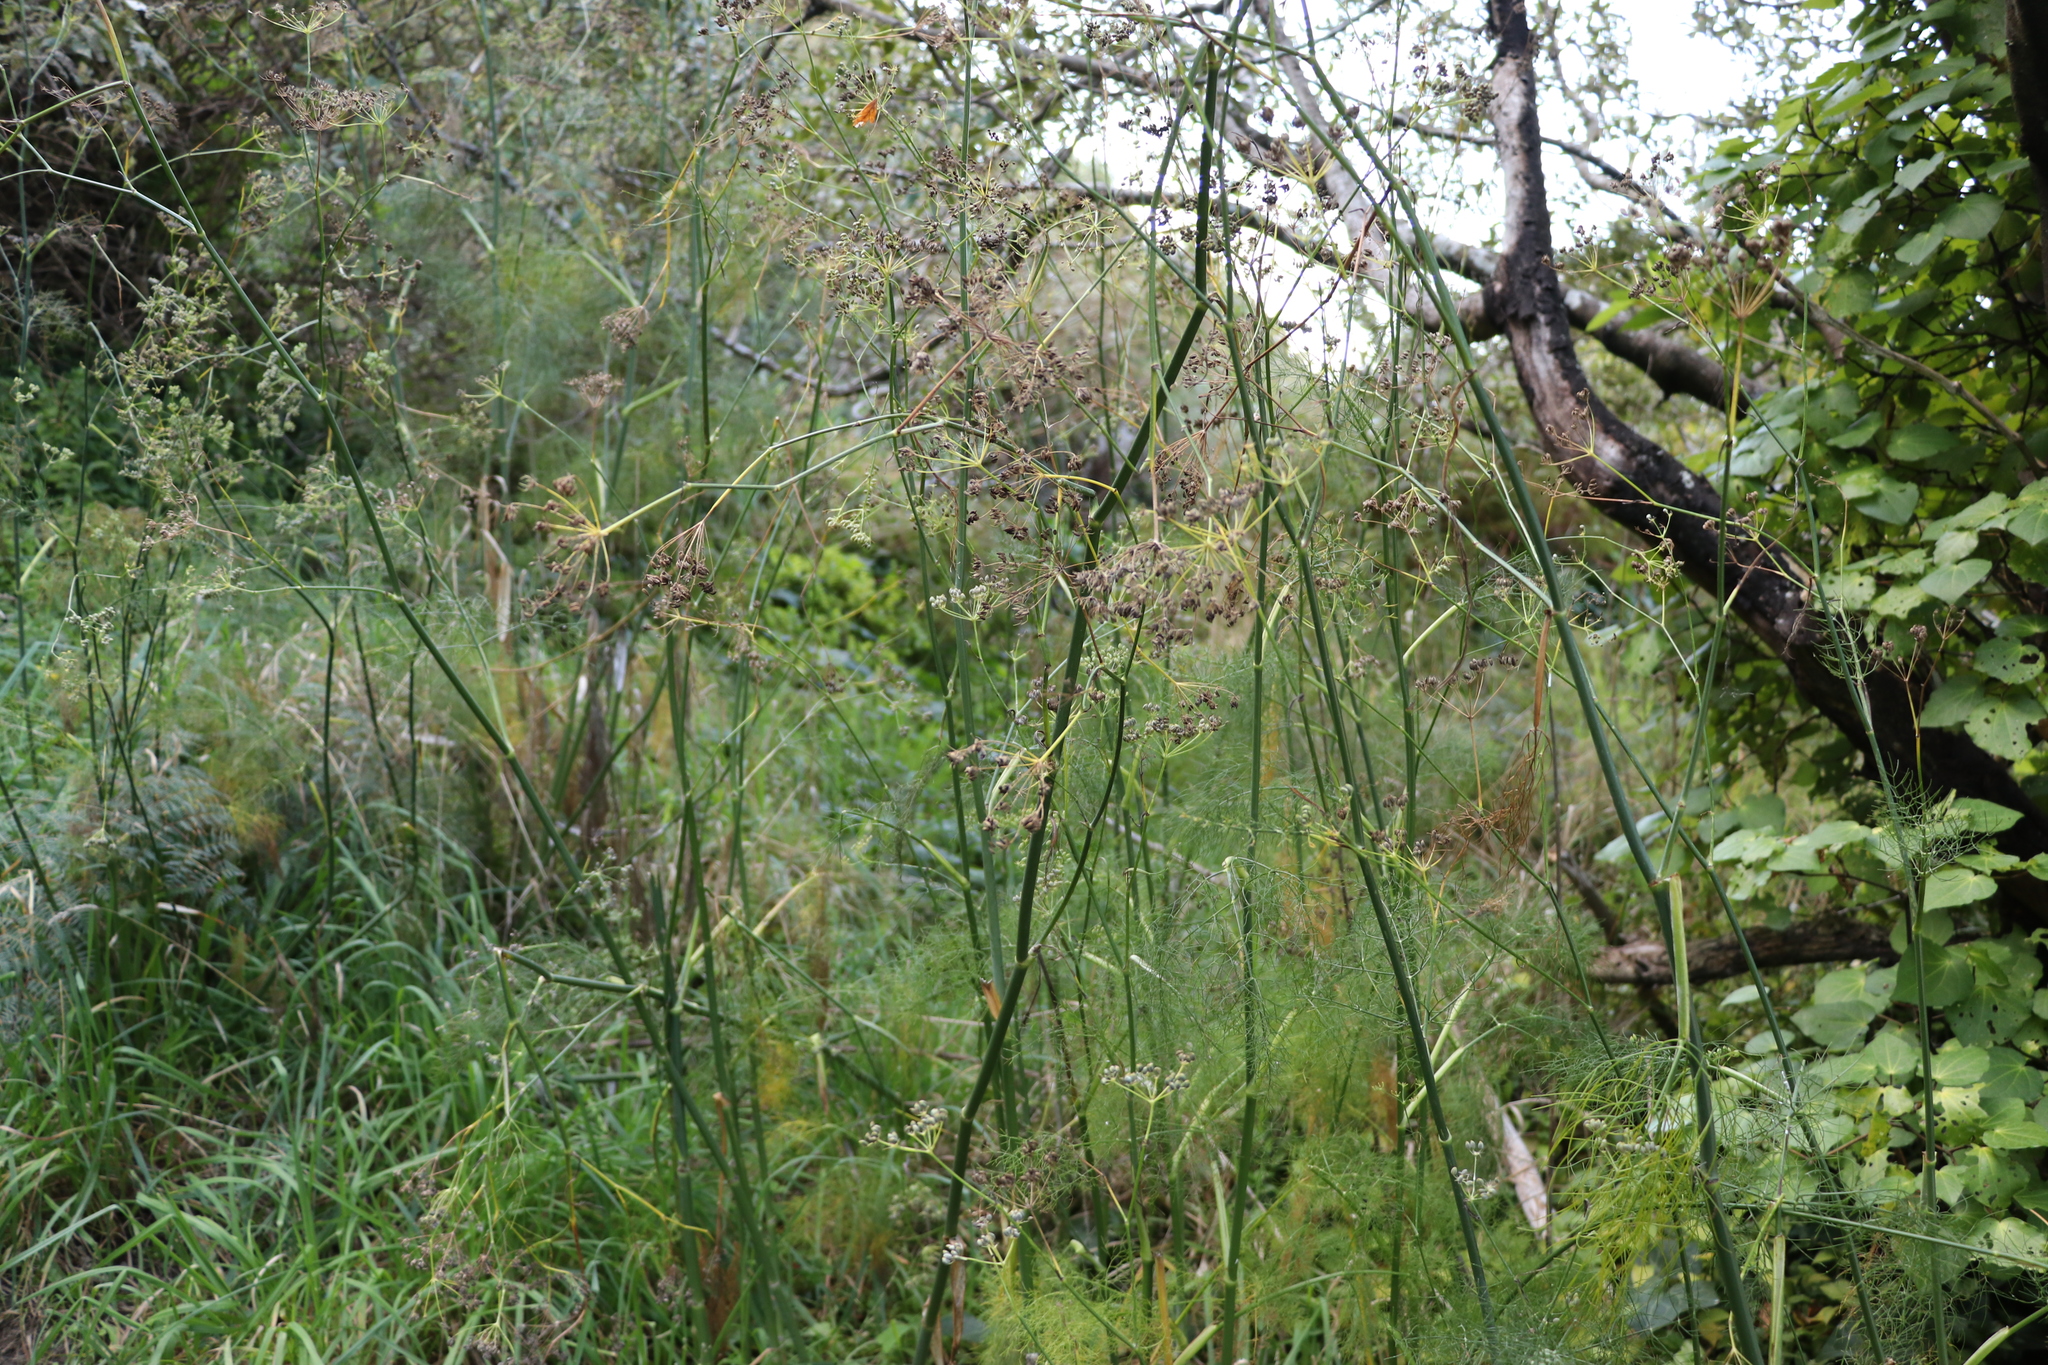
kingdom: Plantae
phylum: Tracheophyta
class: Magnoliopsida
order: Apiales
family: Apiaceae
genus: Foeniculum
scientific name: Foeniculum vulgare
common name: Fennel
